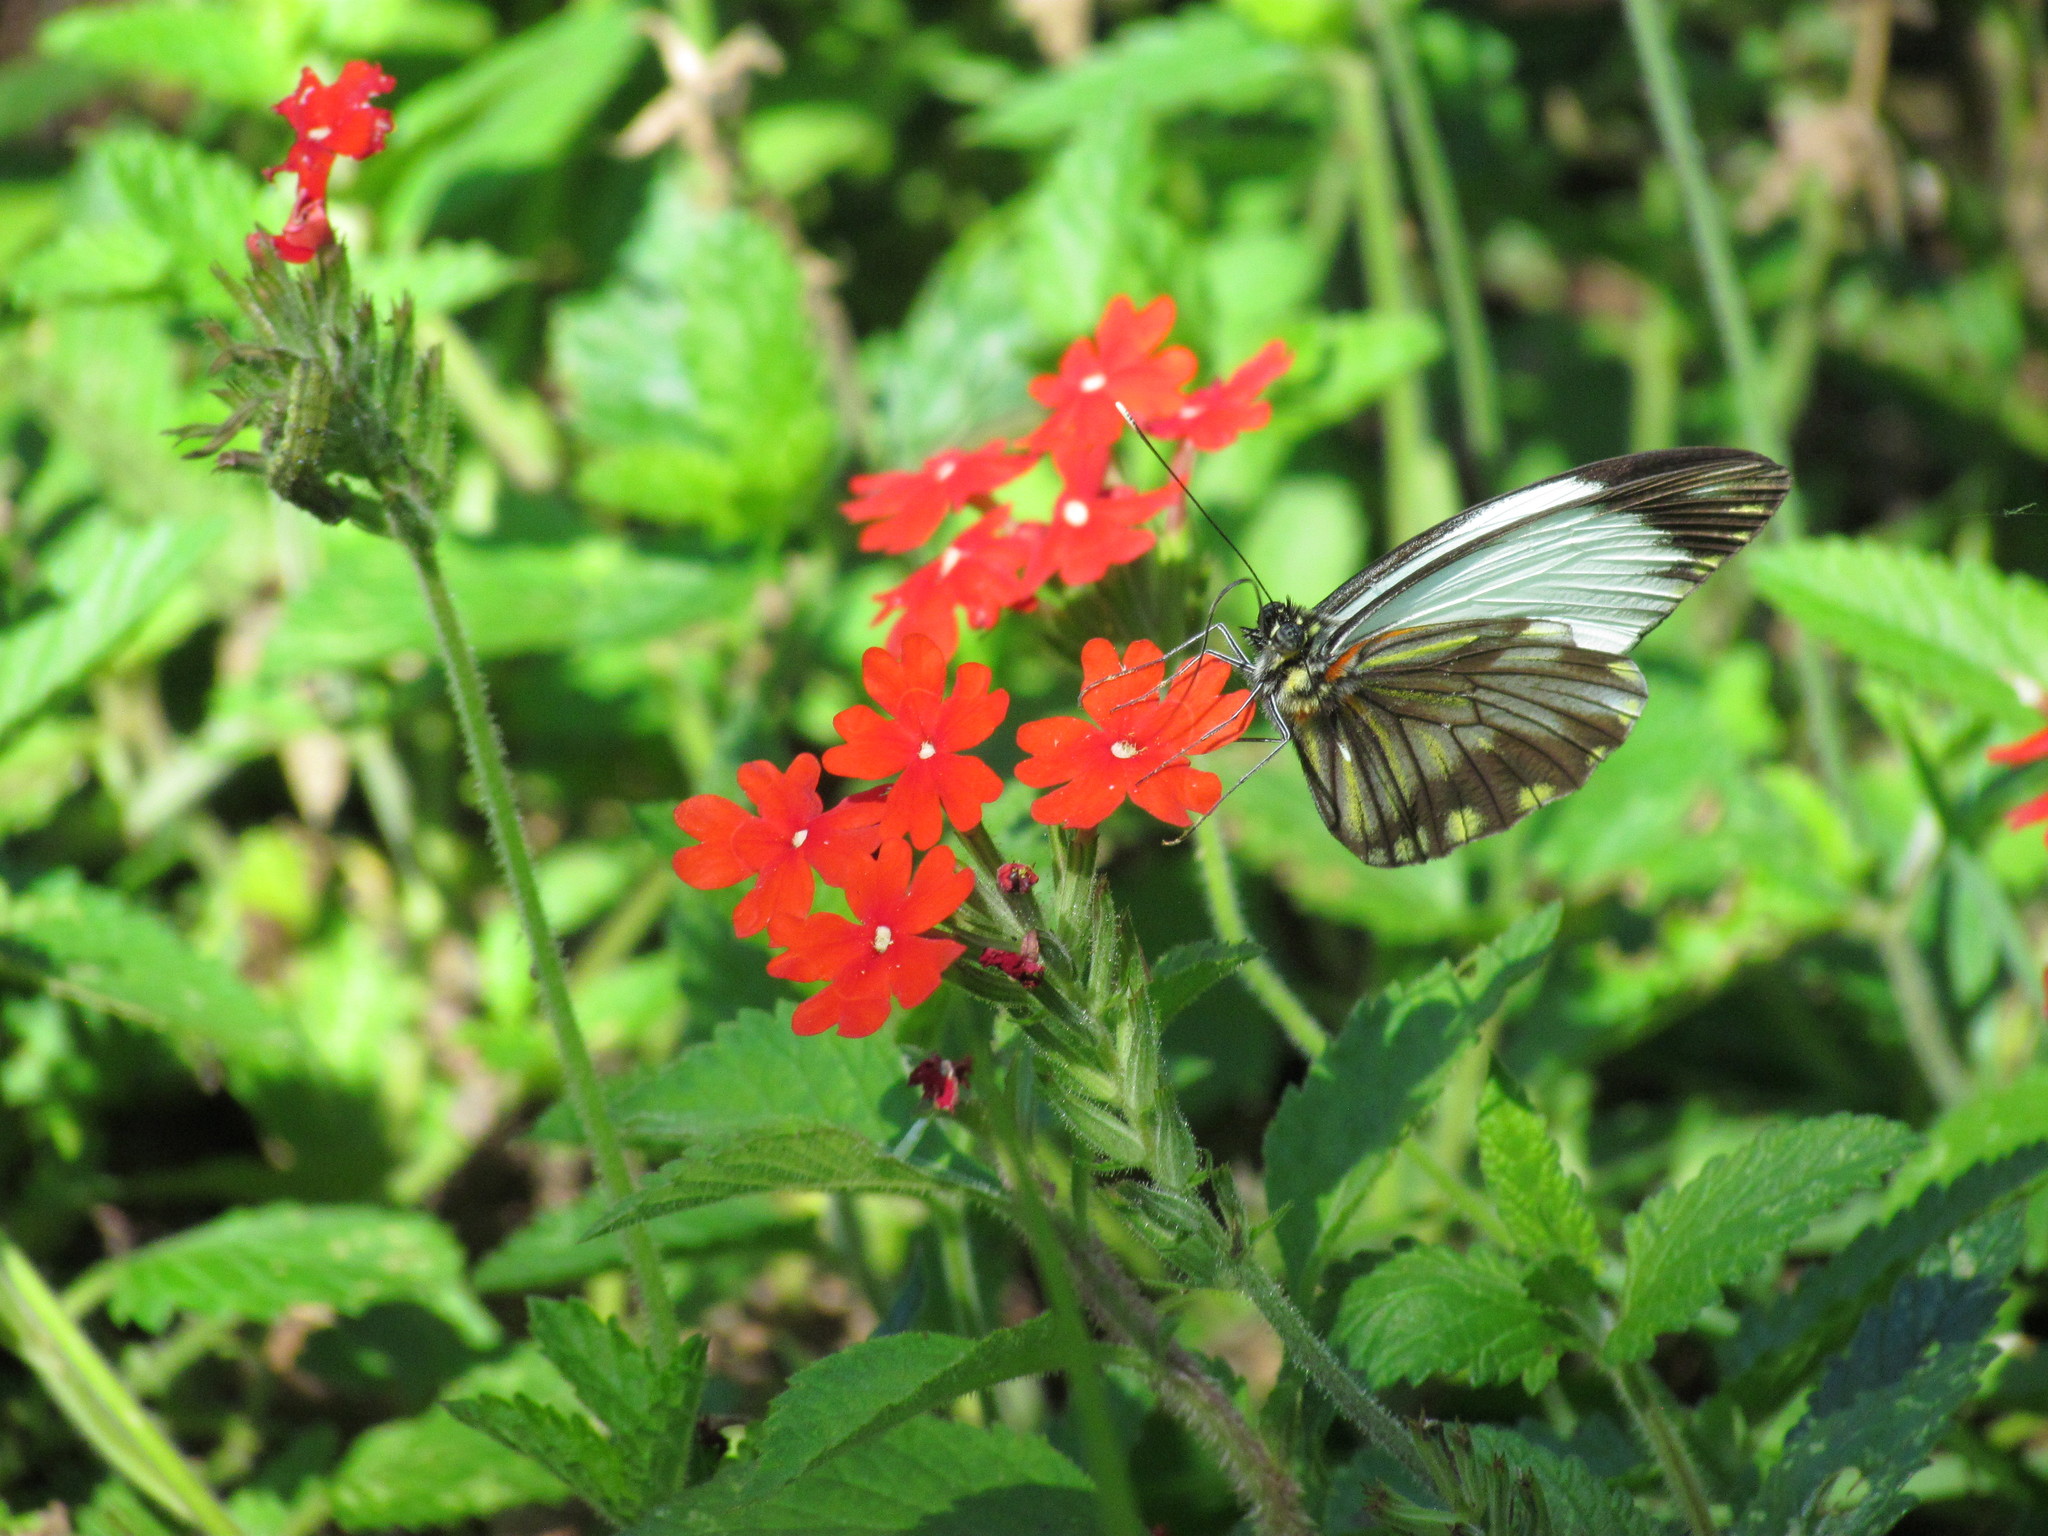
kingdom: Animalia
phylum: Arthropoda
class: Insecta
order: Lepidoptera
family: Pieridae
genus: Pieriballia
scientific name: Pieriballia viardi
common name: Painted white
